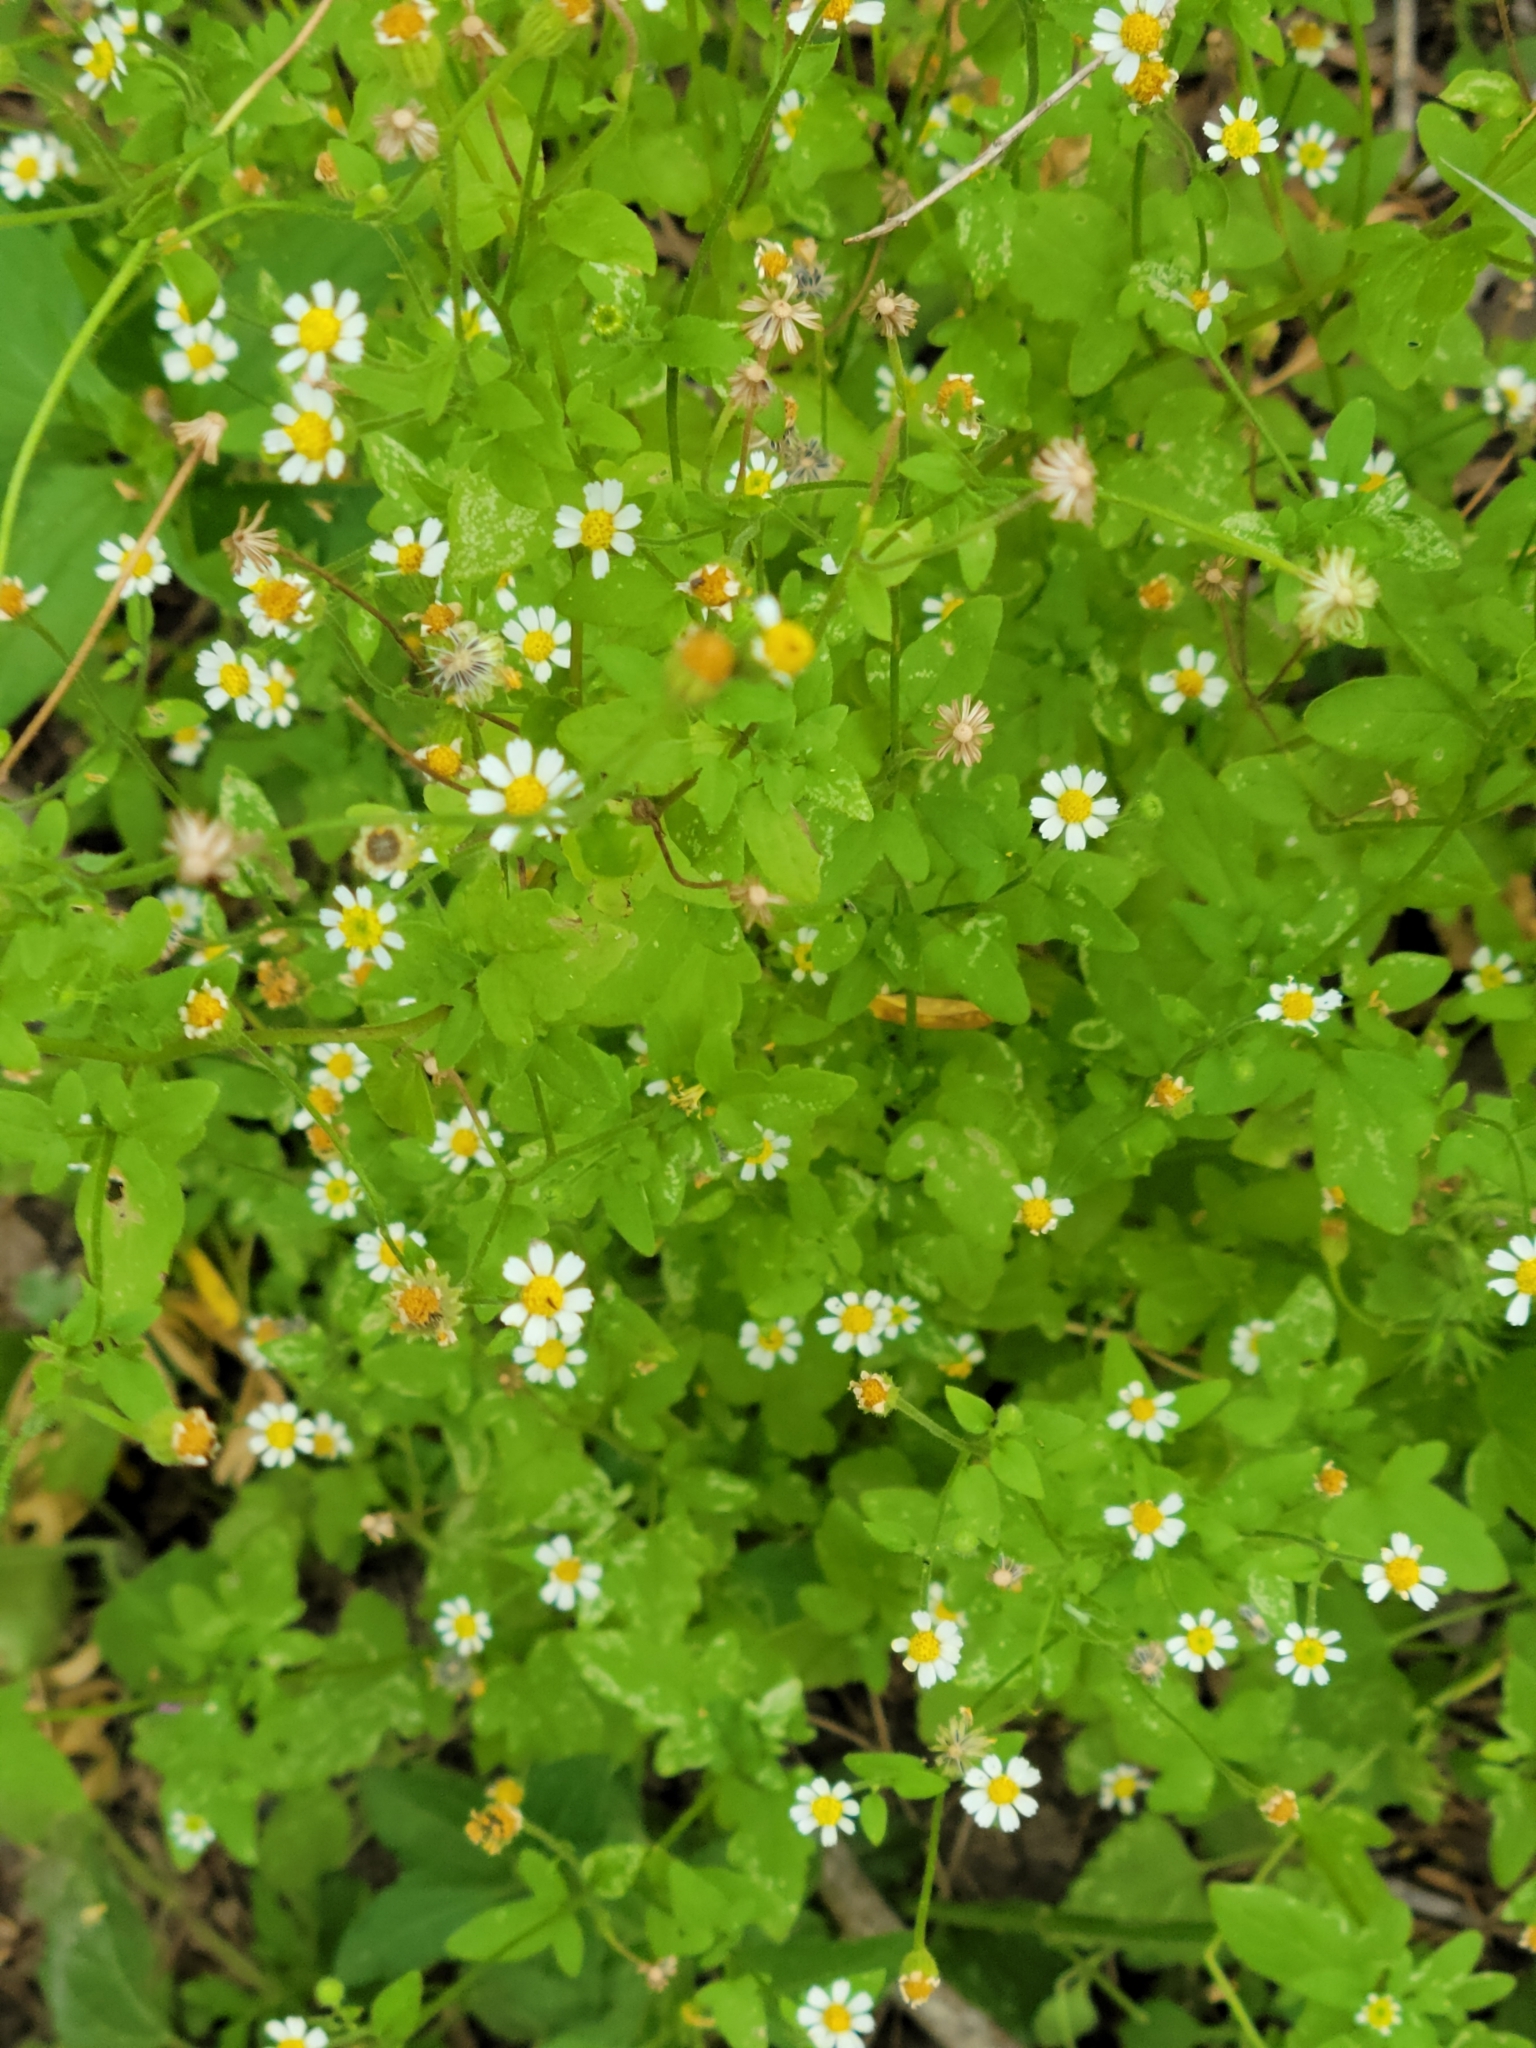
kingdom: Plantae
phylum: Tracheophyta
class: Magnoliopsida
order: Asterales
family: Asteraceae
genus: Galinsogeopsis
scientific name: Galinsogeopsis spilanthoides
